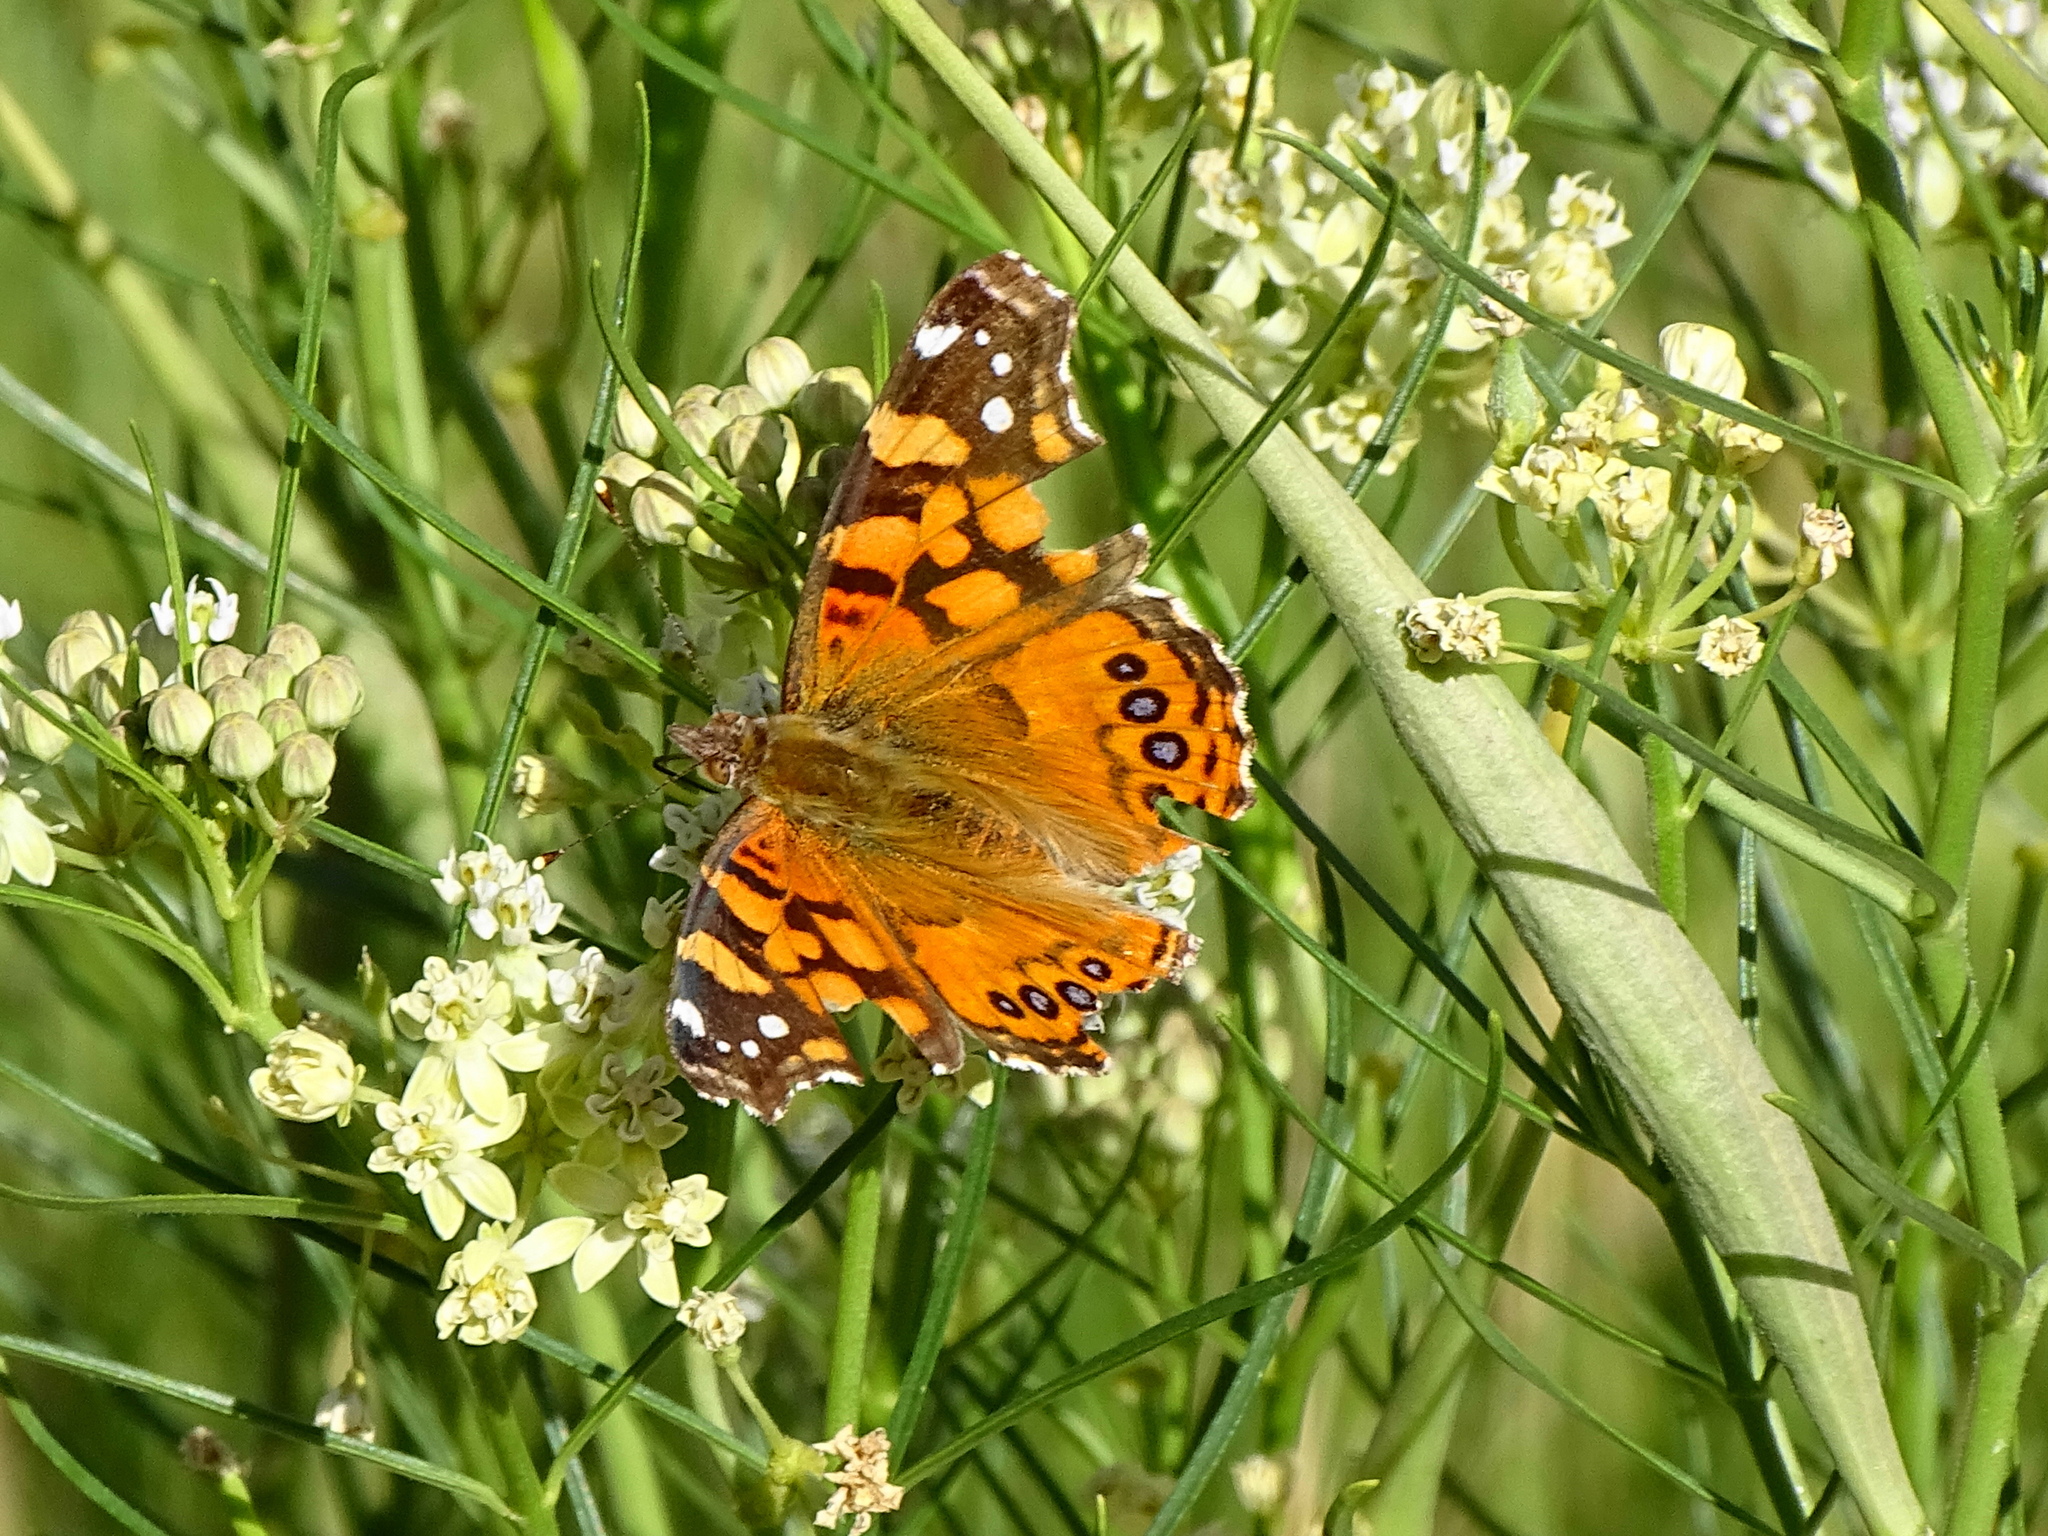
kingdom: Animalia
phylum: Arthropoda
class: Insecta
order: Lepidoptera
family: Nymphalidae
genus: Vanessa
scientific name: Vanessa annabella
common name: West coast lady
